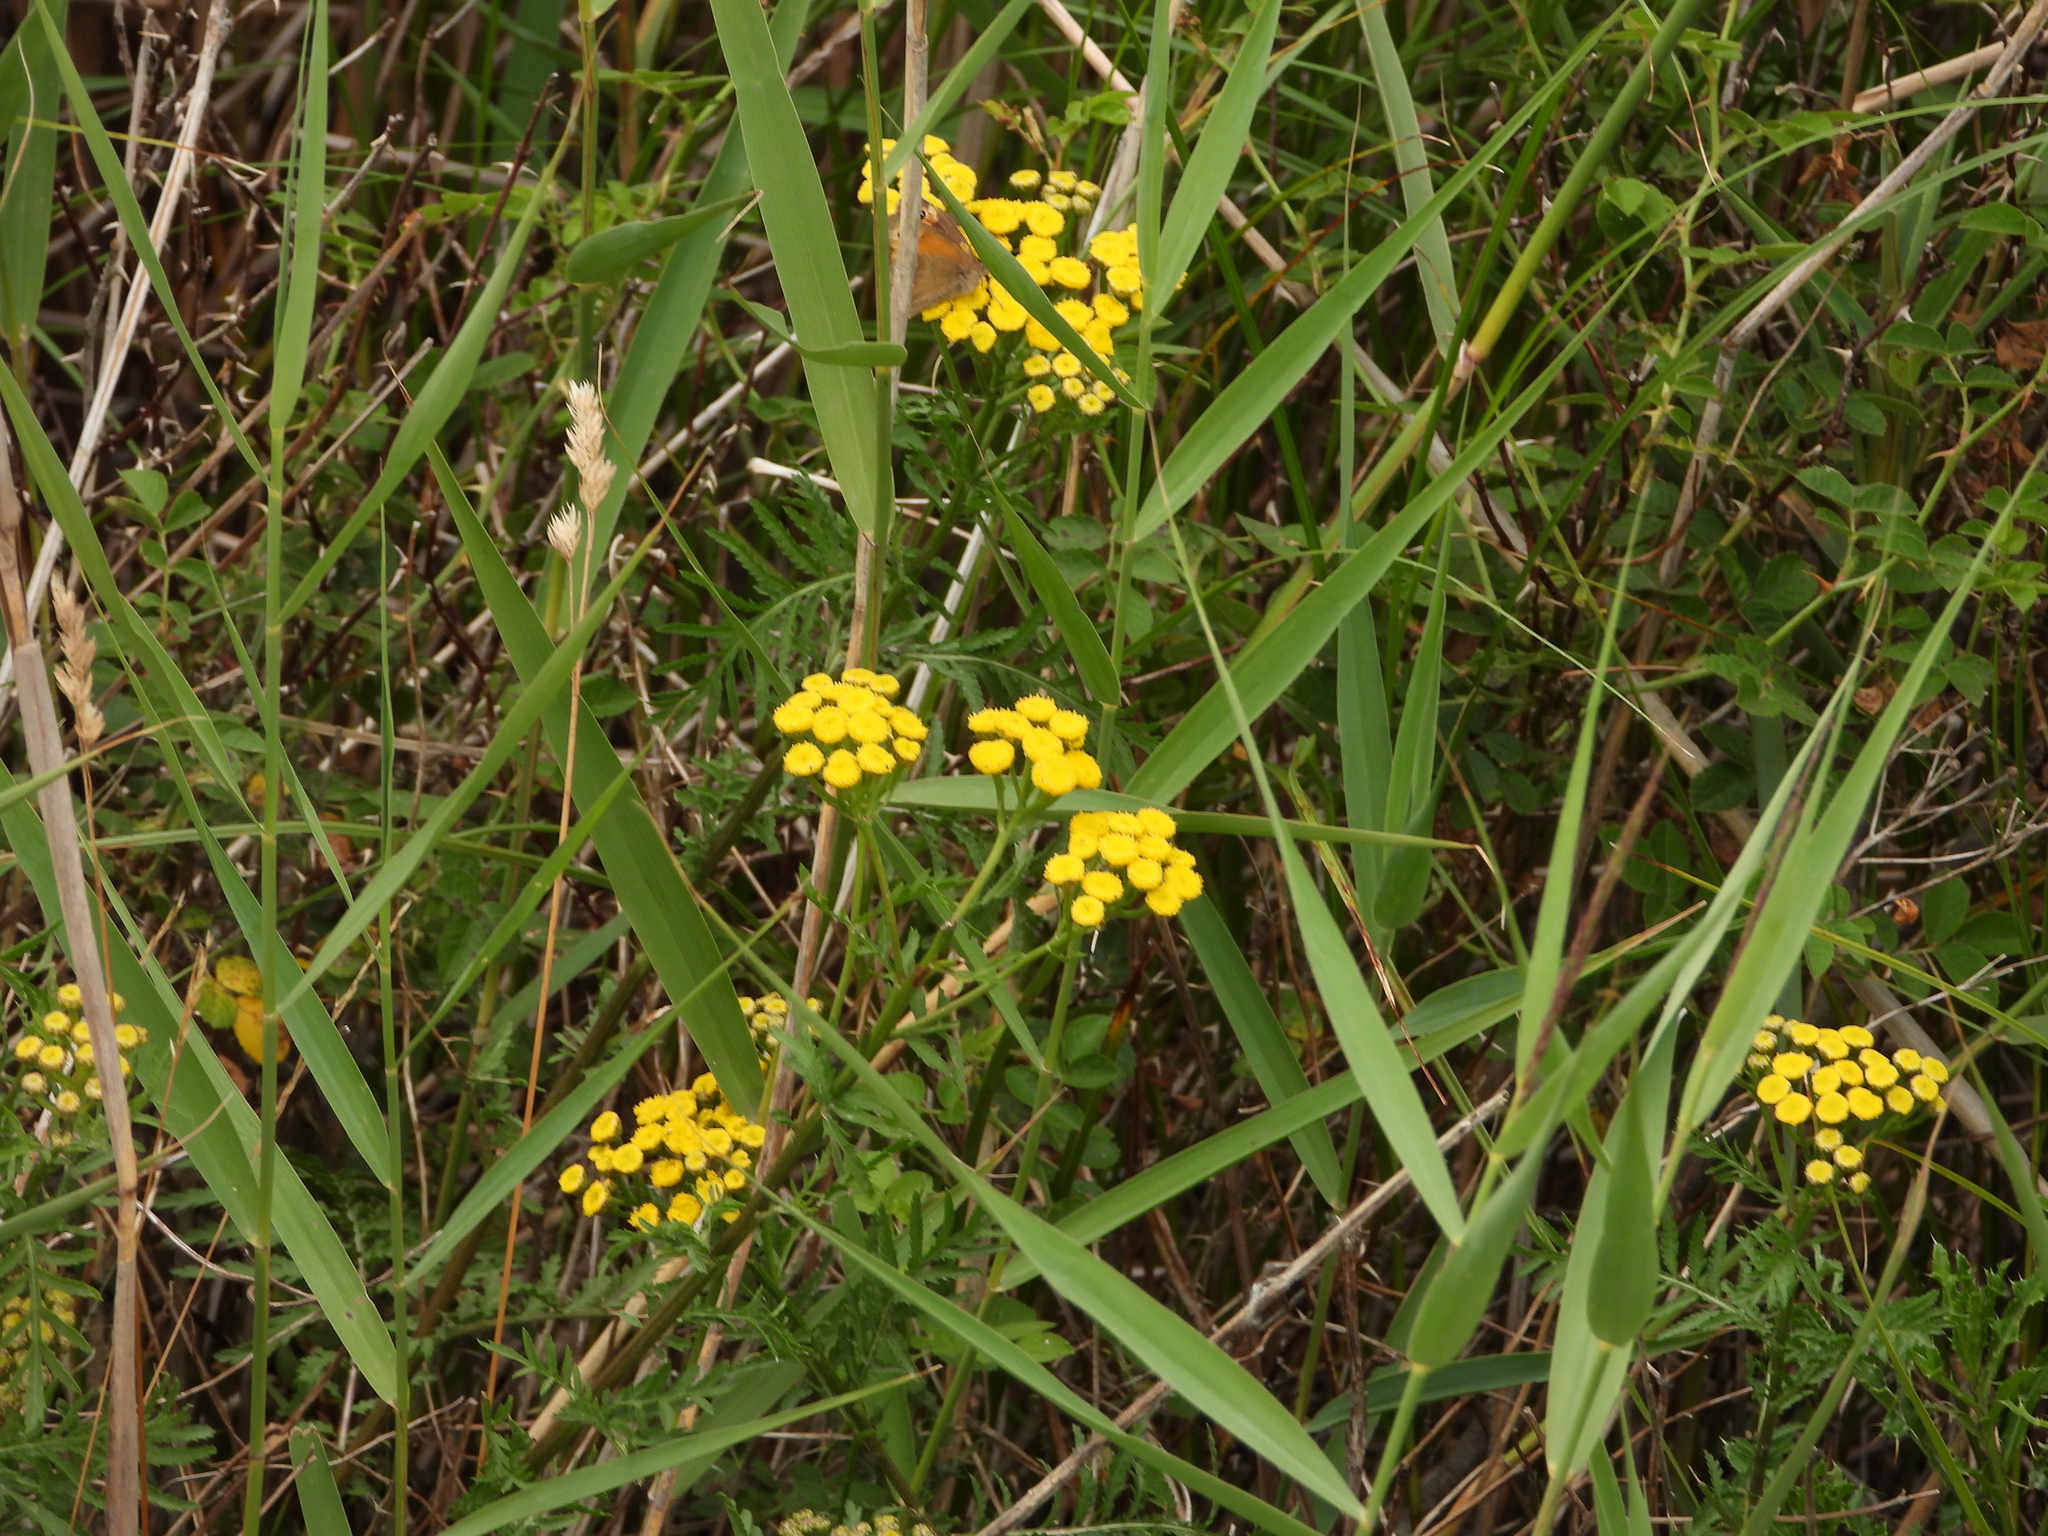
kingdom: Plantae
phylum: Tracheophyta
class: Magnoliopsida
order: Asterales
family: Asteraceae
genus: Tanacetum
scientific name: Tanacetum vulgare
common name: Common tansy
